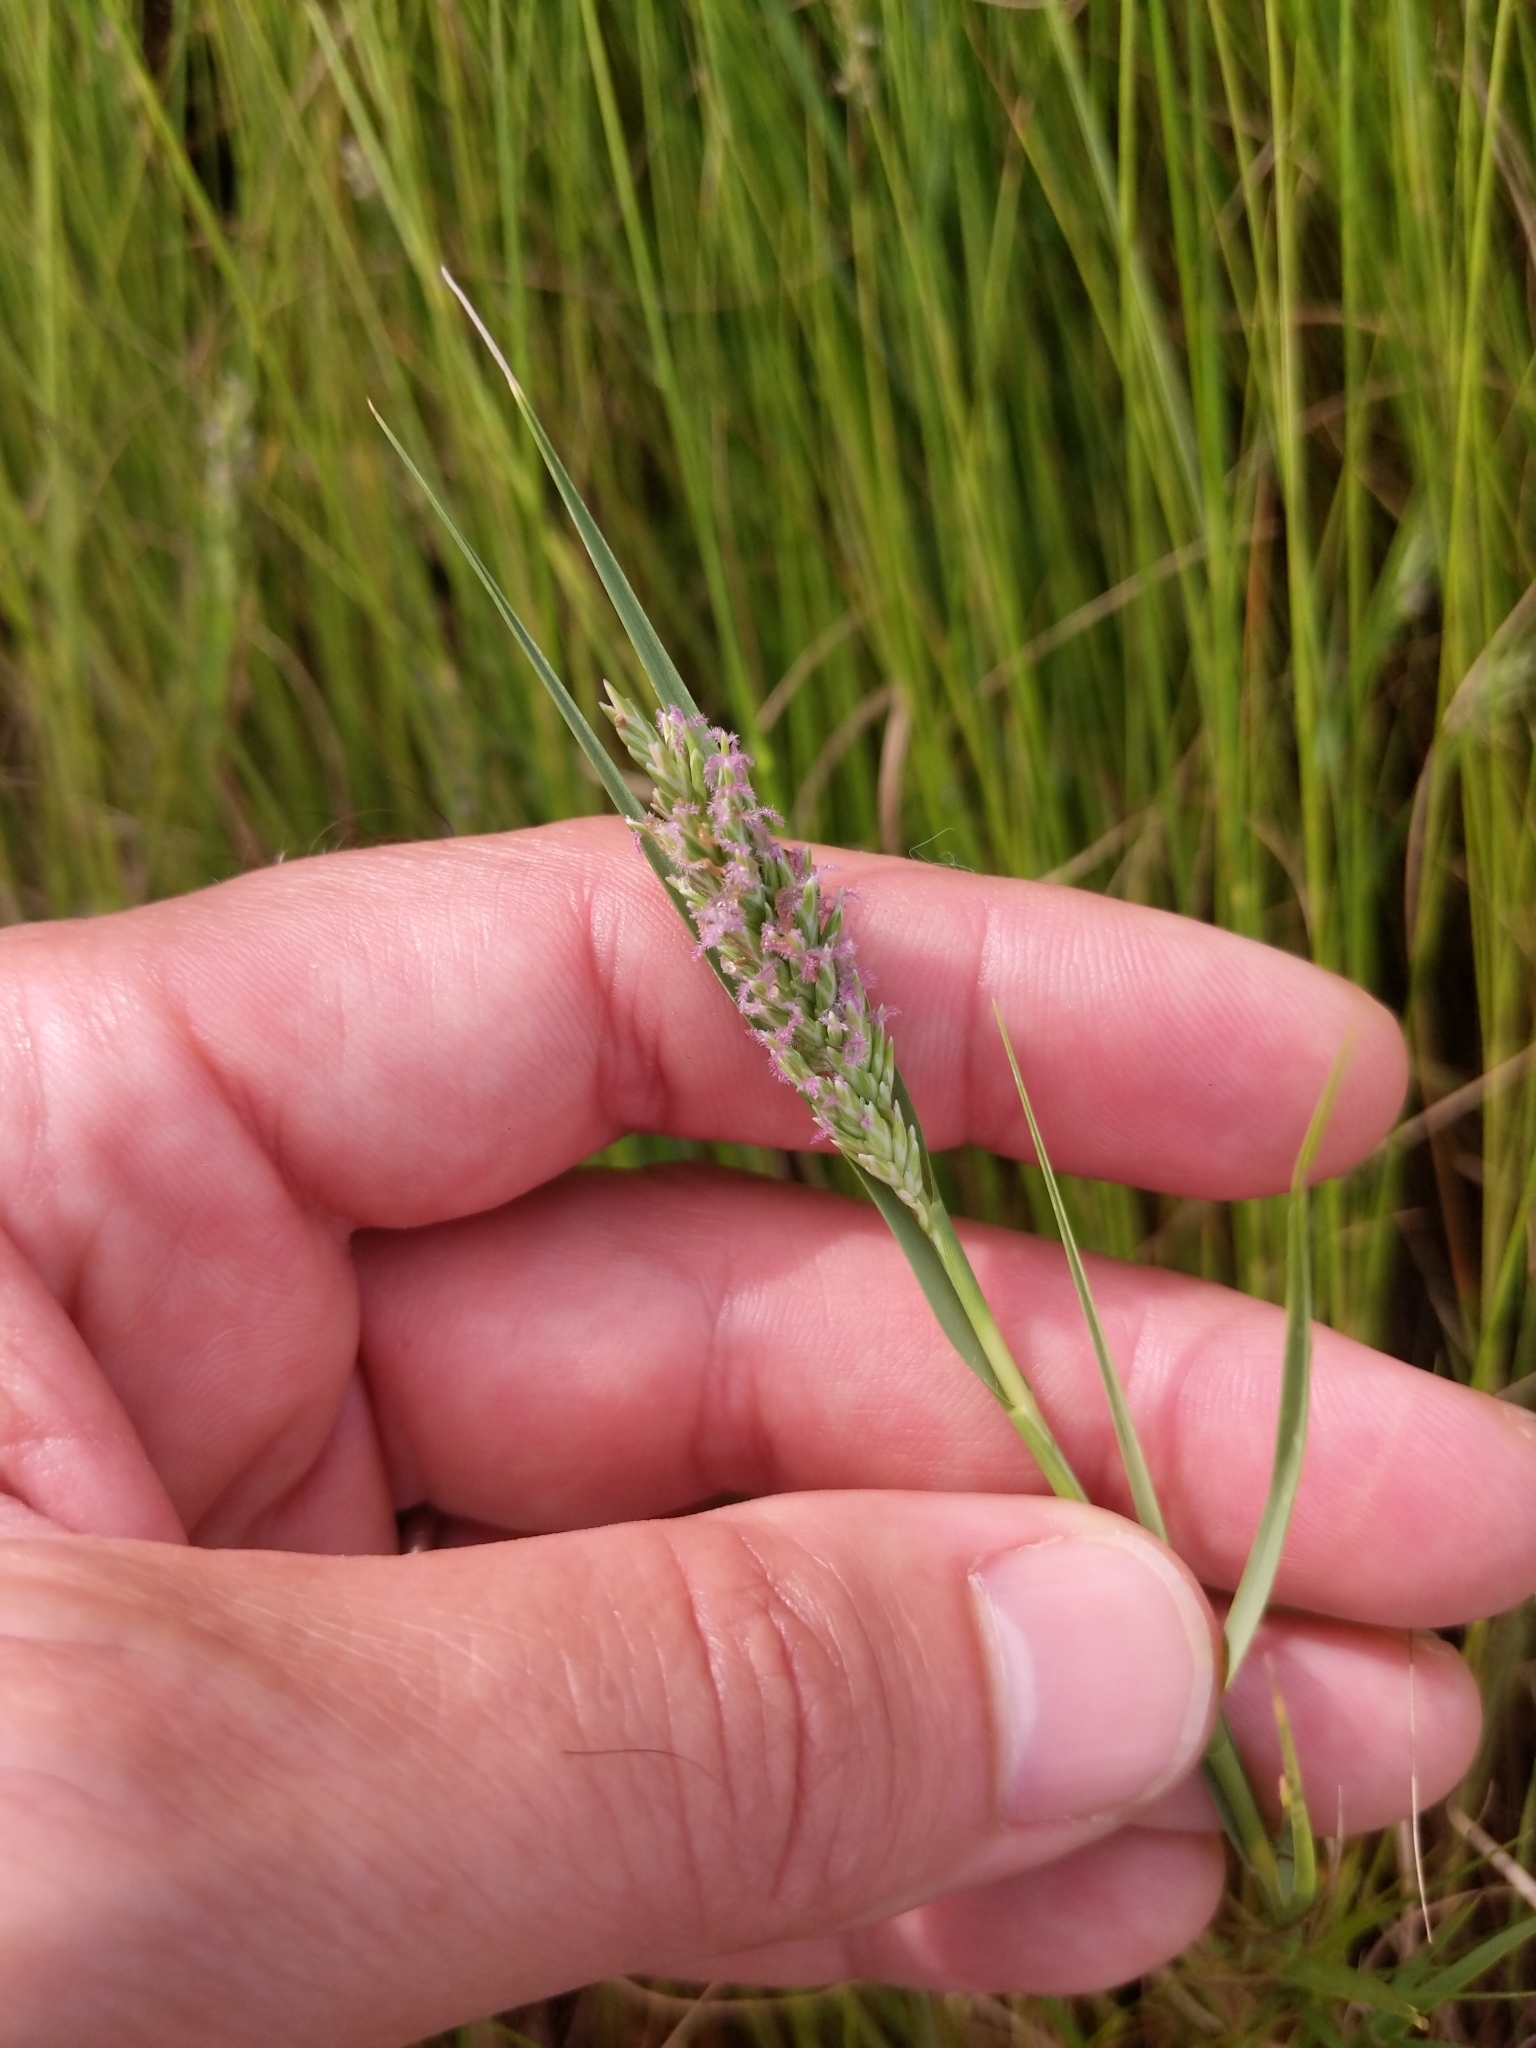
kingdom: Plantae
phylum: Tracheophyta
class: Liliopsida
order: Poales
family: Poaceae
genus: Distichlis
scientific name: Distichlis spicata
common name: Saltgrass
